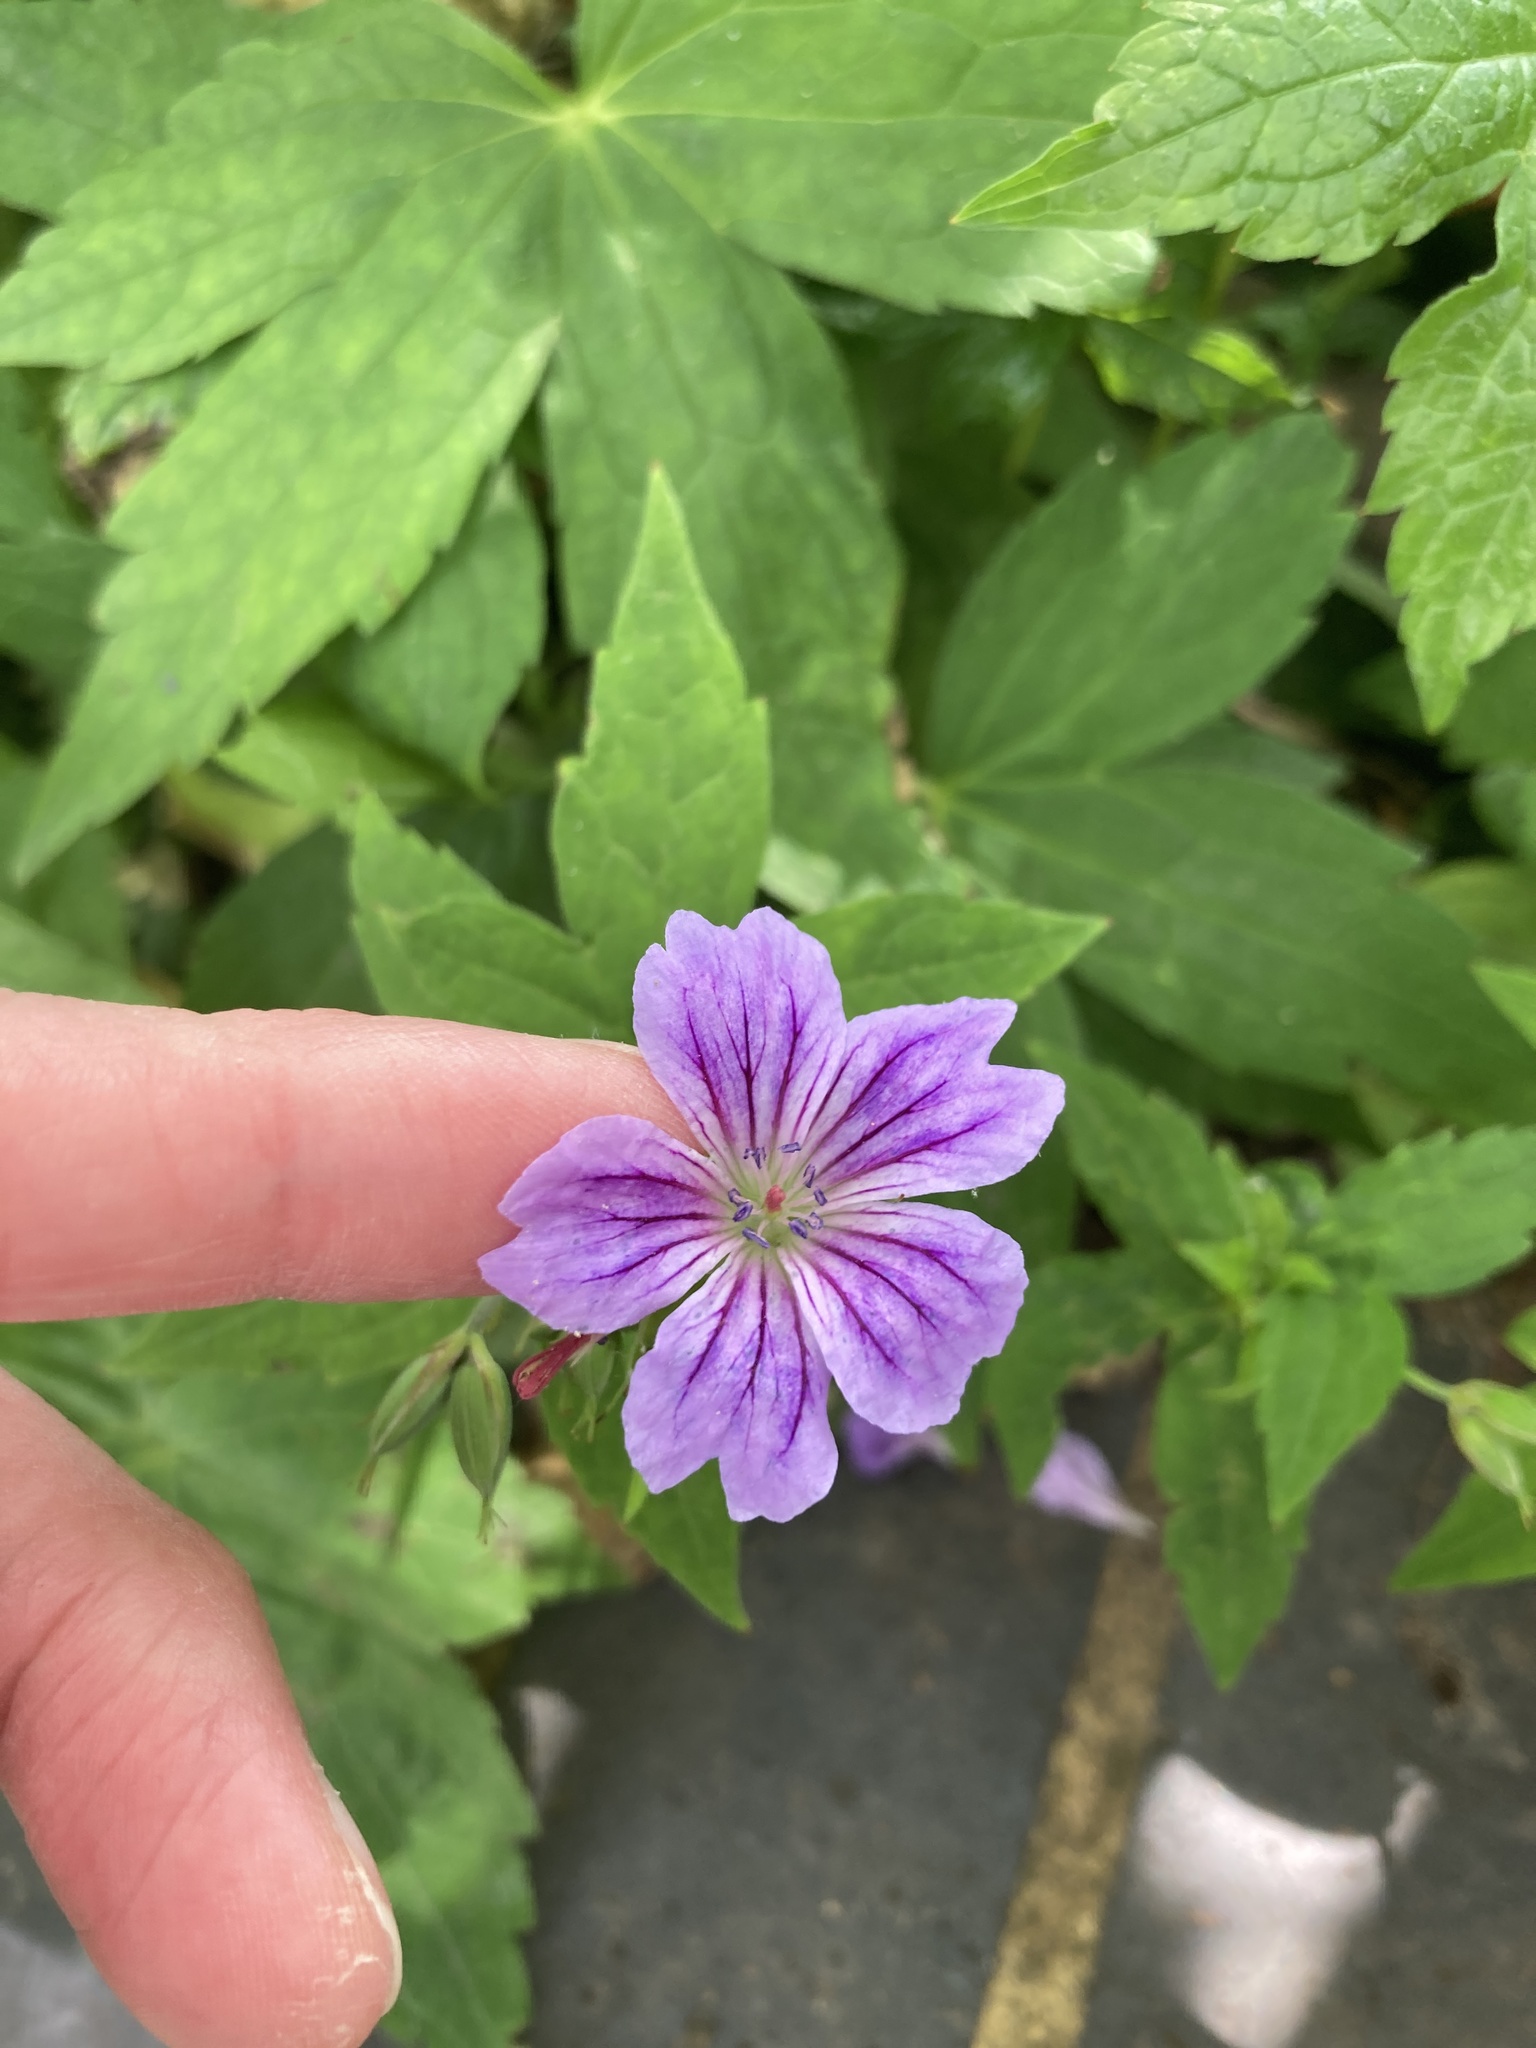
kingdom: Plantae
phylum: Tracheophyta
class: Magnoliopsida
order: Geraniales
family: Geraniaceae
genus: Geranium
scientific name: Geranium nodosum
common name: Knotted crane's-bill
